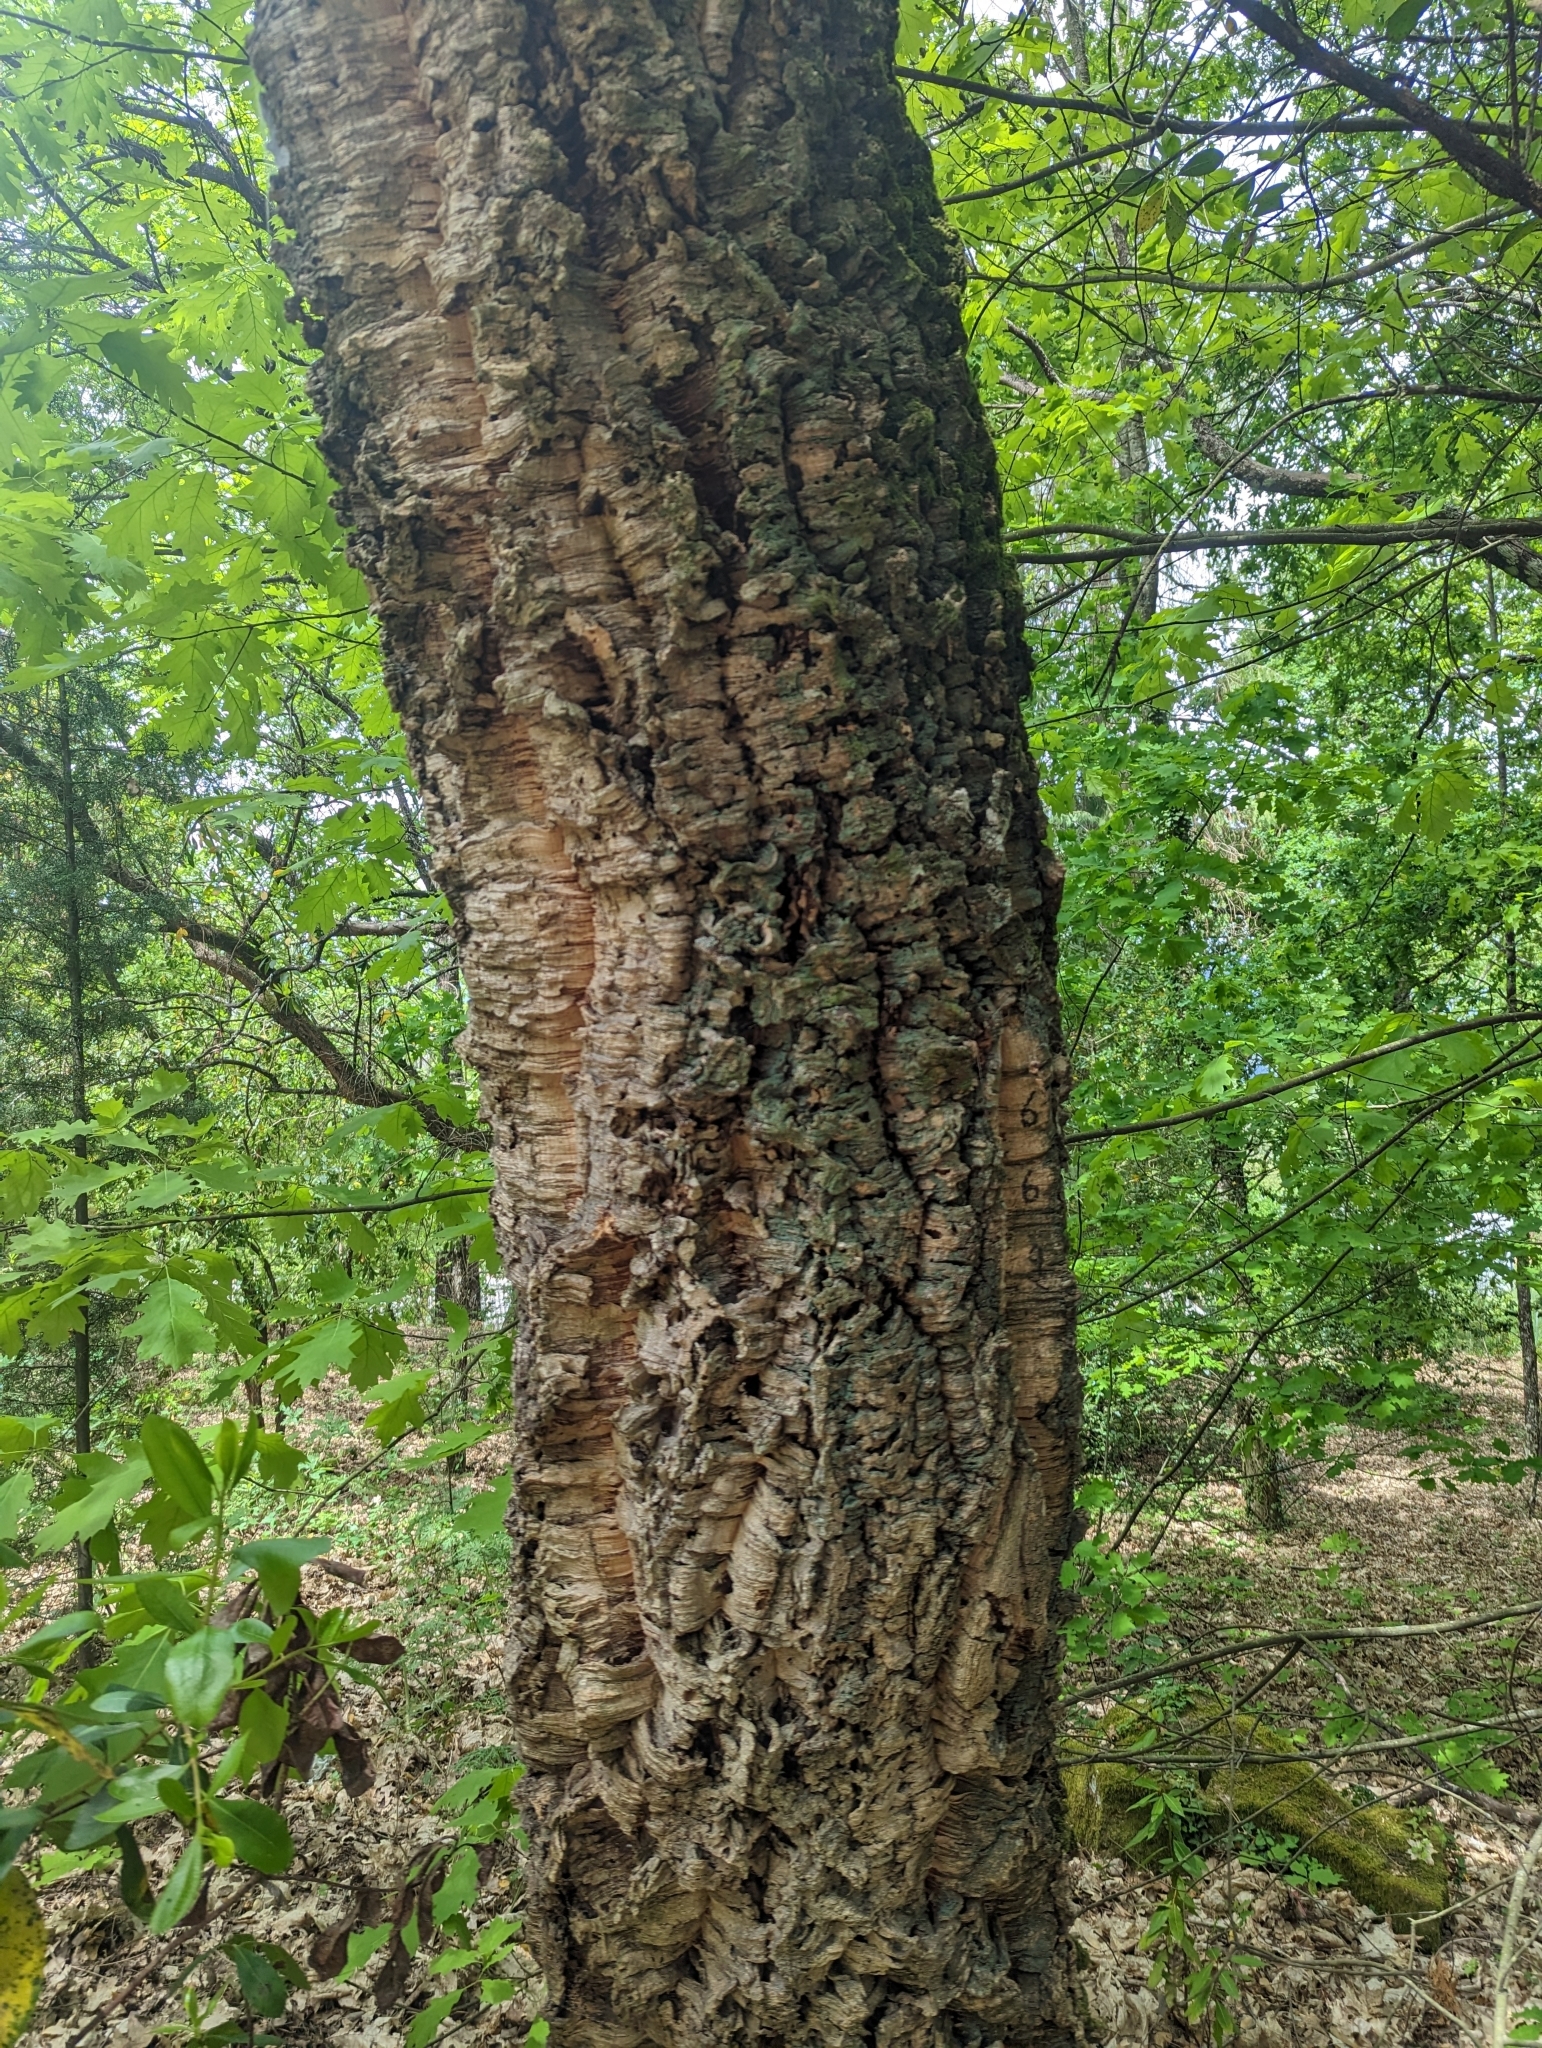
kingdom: Plantae
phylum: Tracheophyta
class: Magnoliopsida
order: Fagales
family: Fagaceae
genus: Quercus
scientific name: Quercus suber
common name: Cork oak
